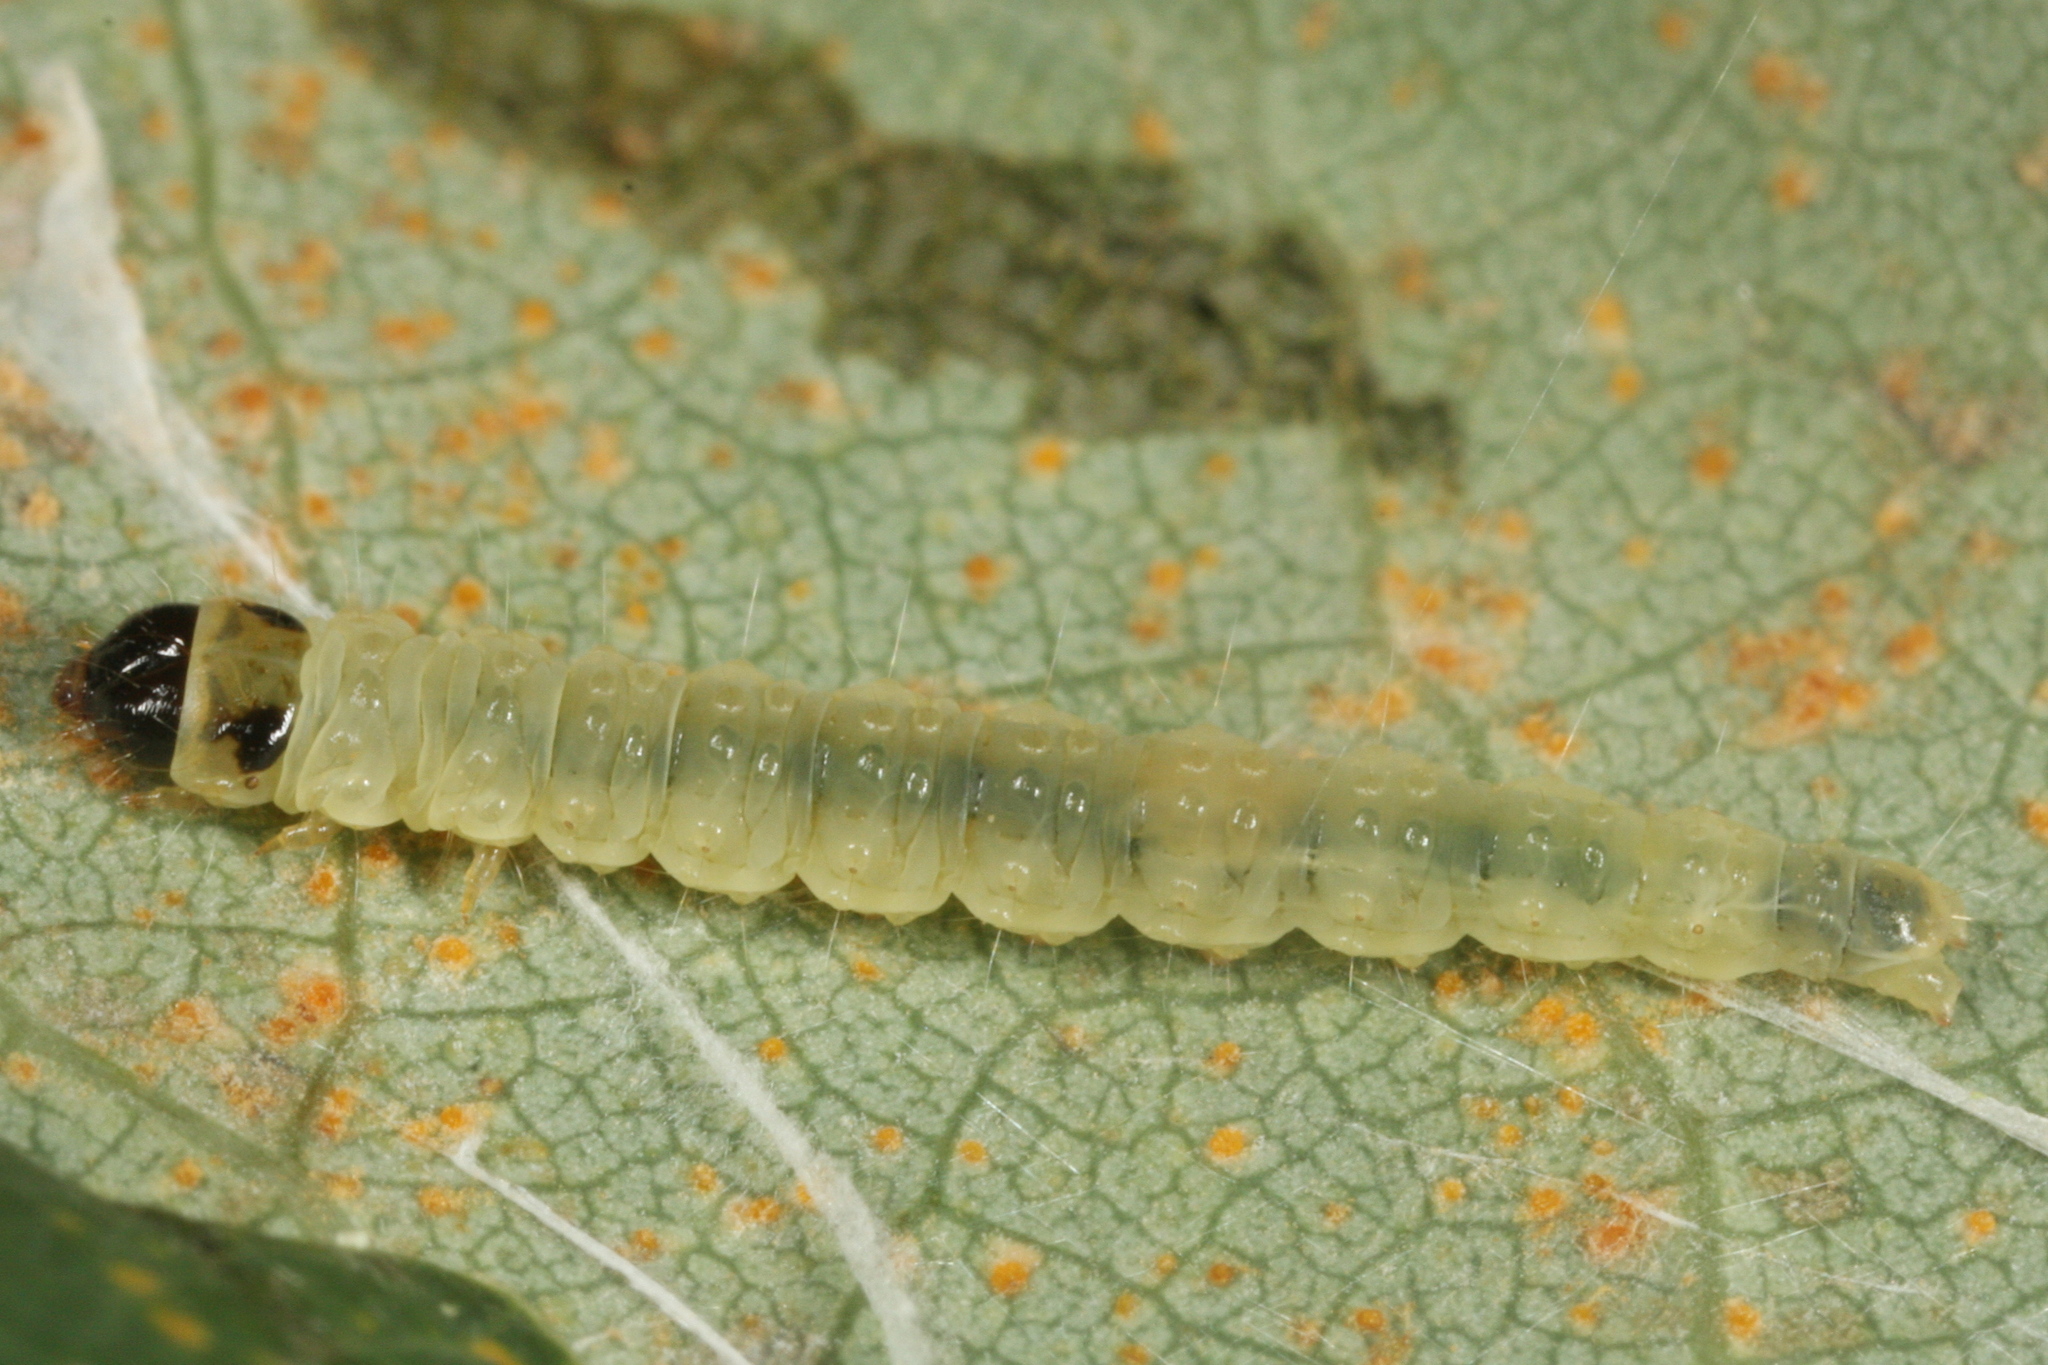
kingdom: Animalia
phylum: Arthropoda
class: Insecta
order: Lepidoptera
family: Tortricidae
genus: Ancylis
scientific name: Ancylis laetana
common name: Aspen roller
